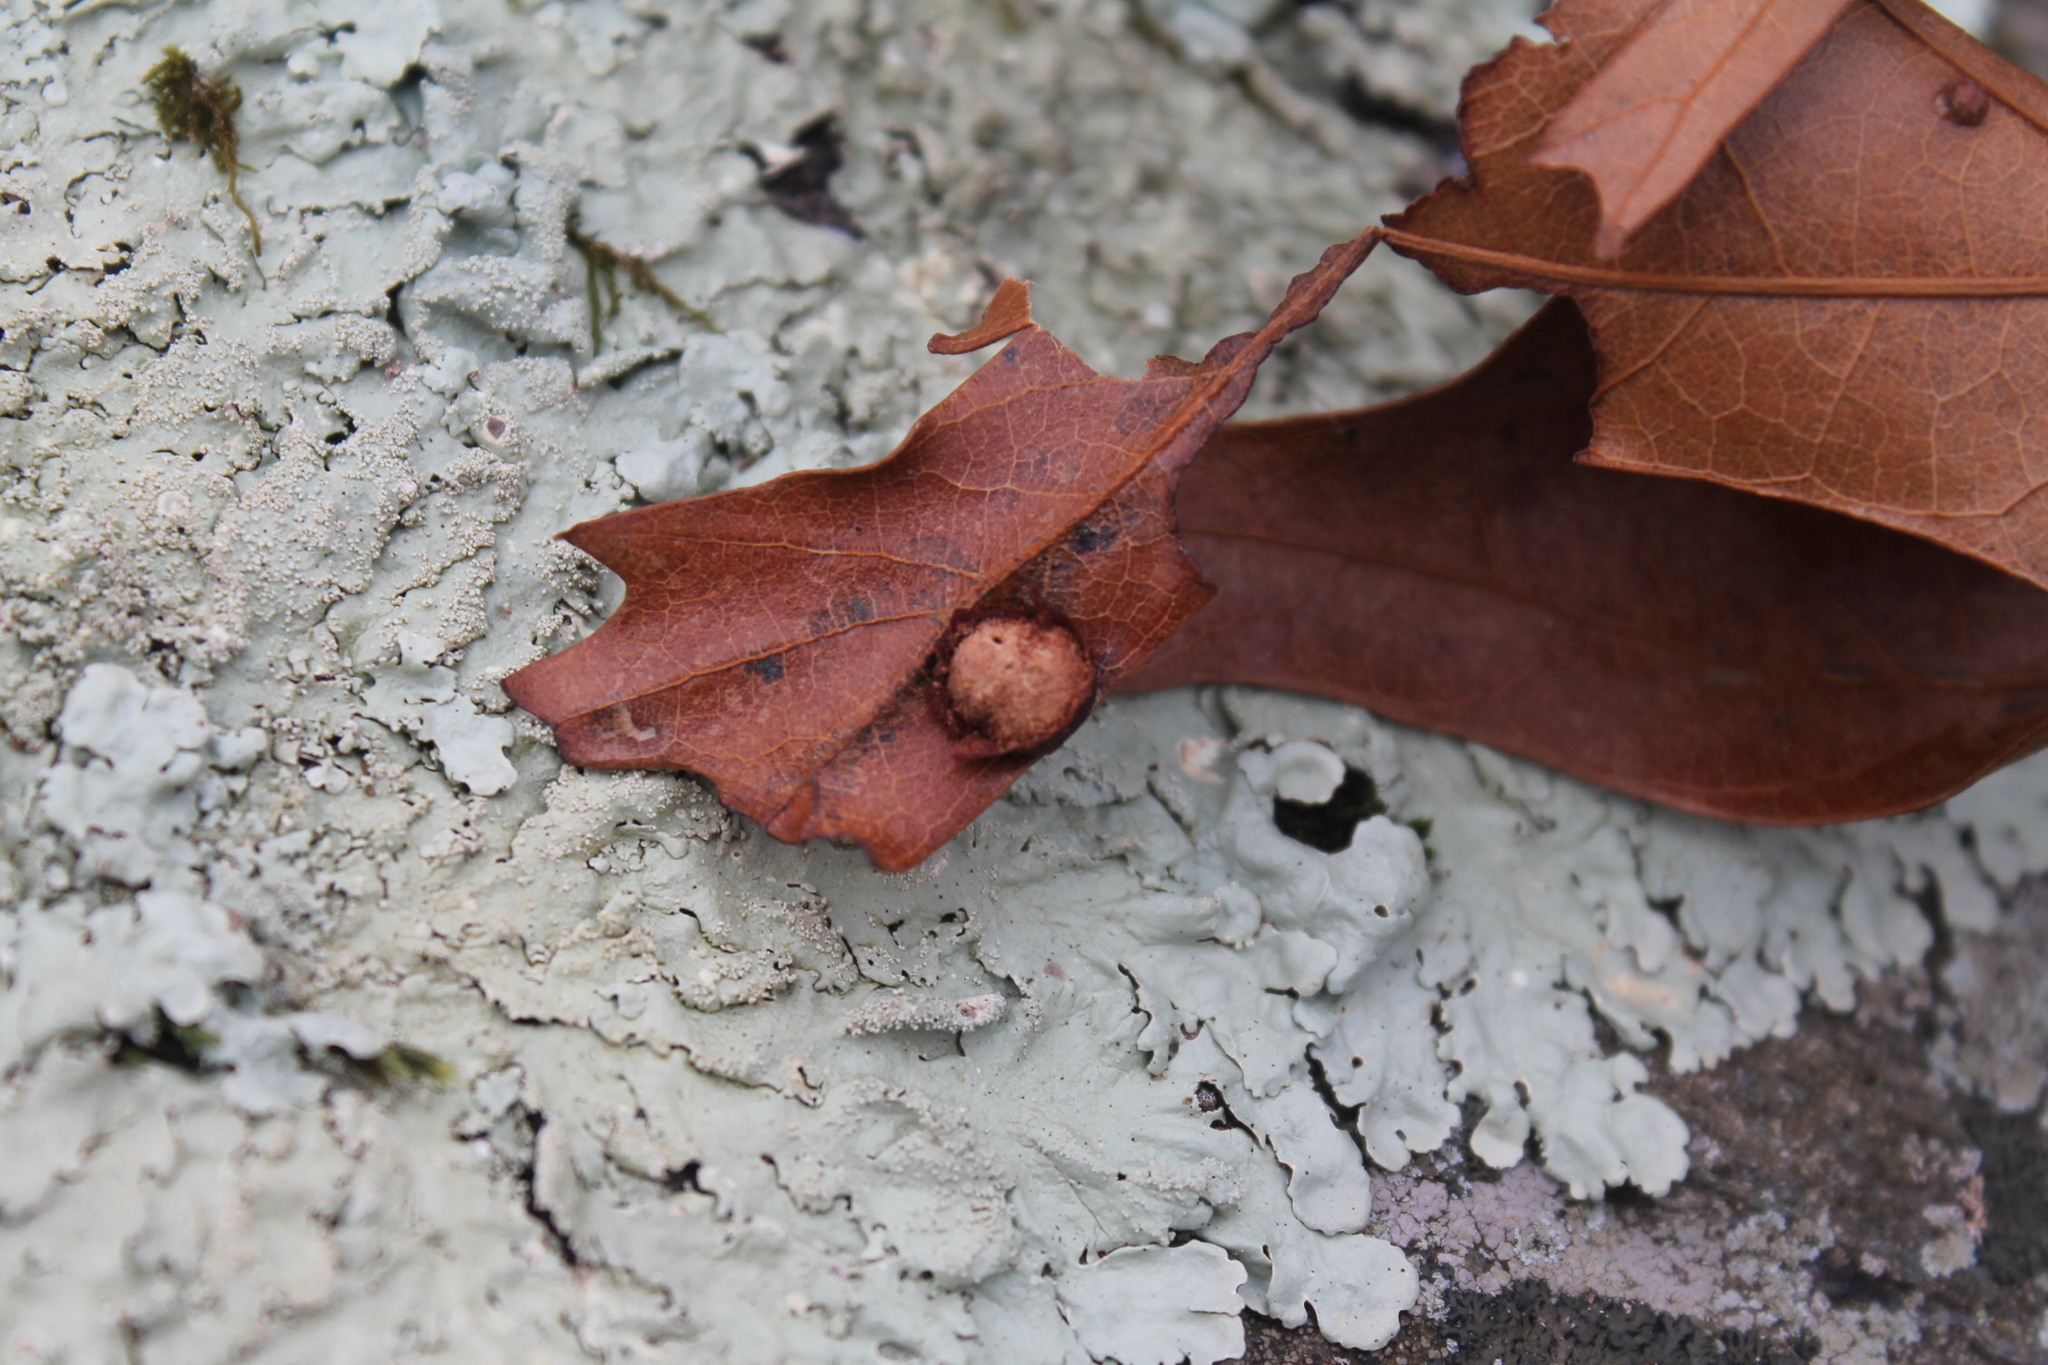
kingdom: Animalia
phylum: Arthropoda
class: Insecta
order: Diptera
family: Cecidomyiidae
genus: Polystepha
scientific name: Polystepha pilulae
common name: Oak leaf gall midge
